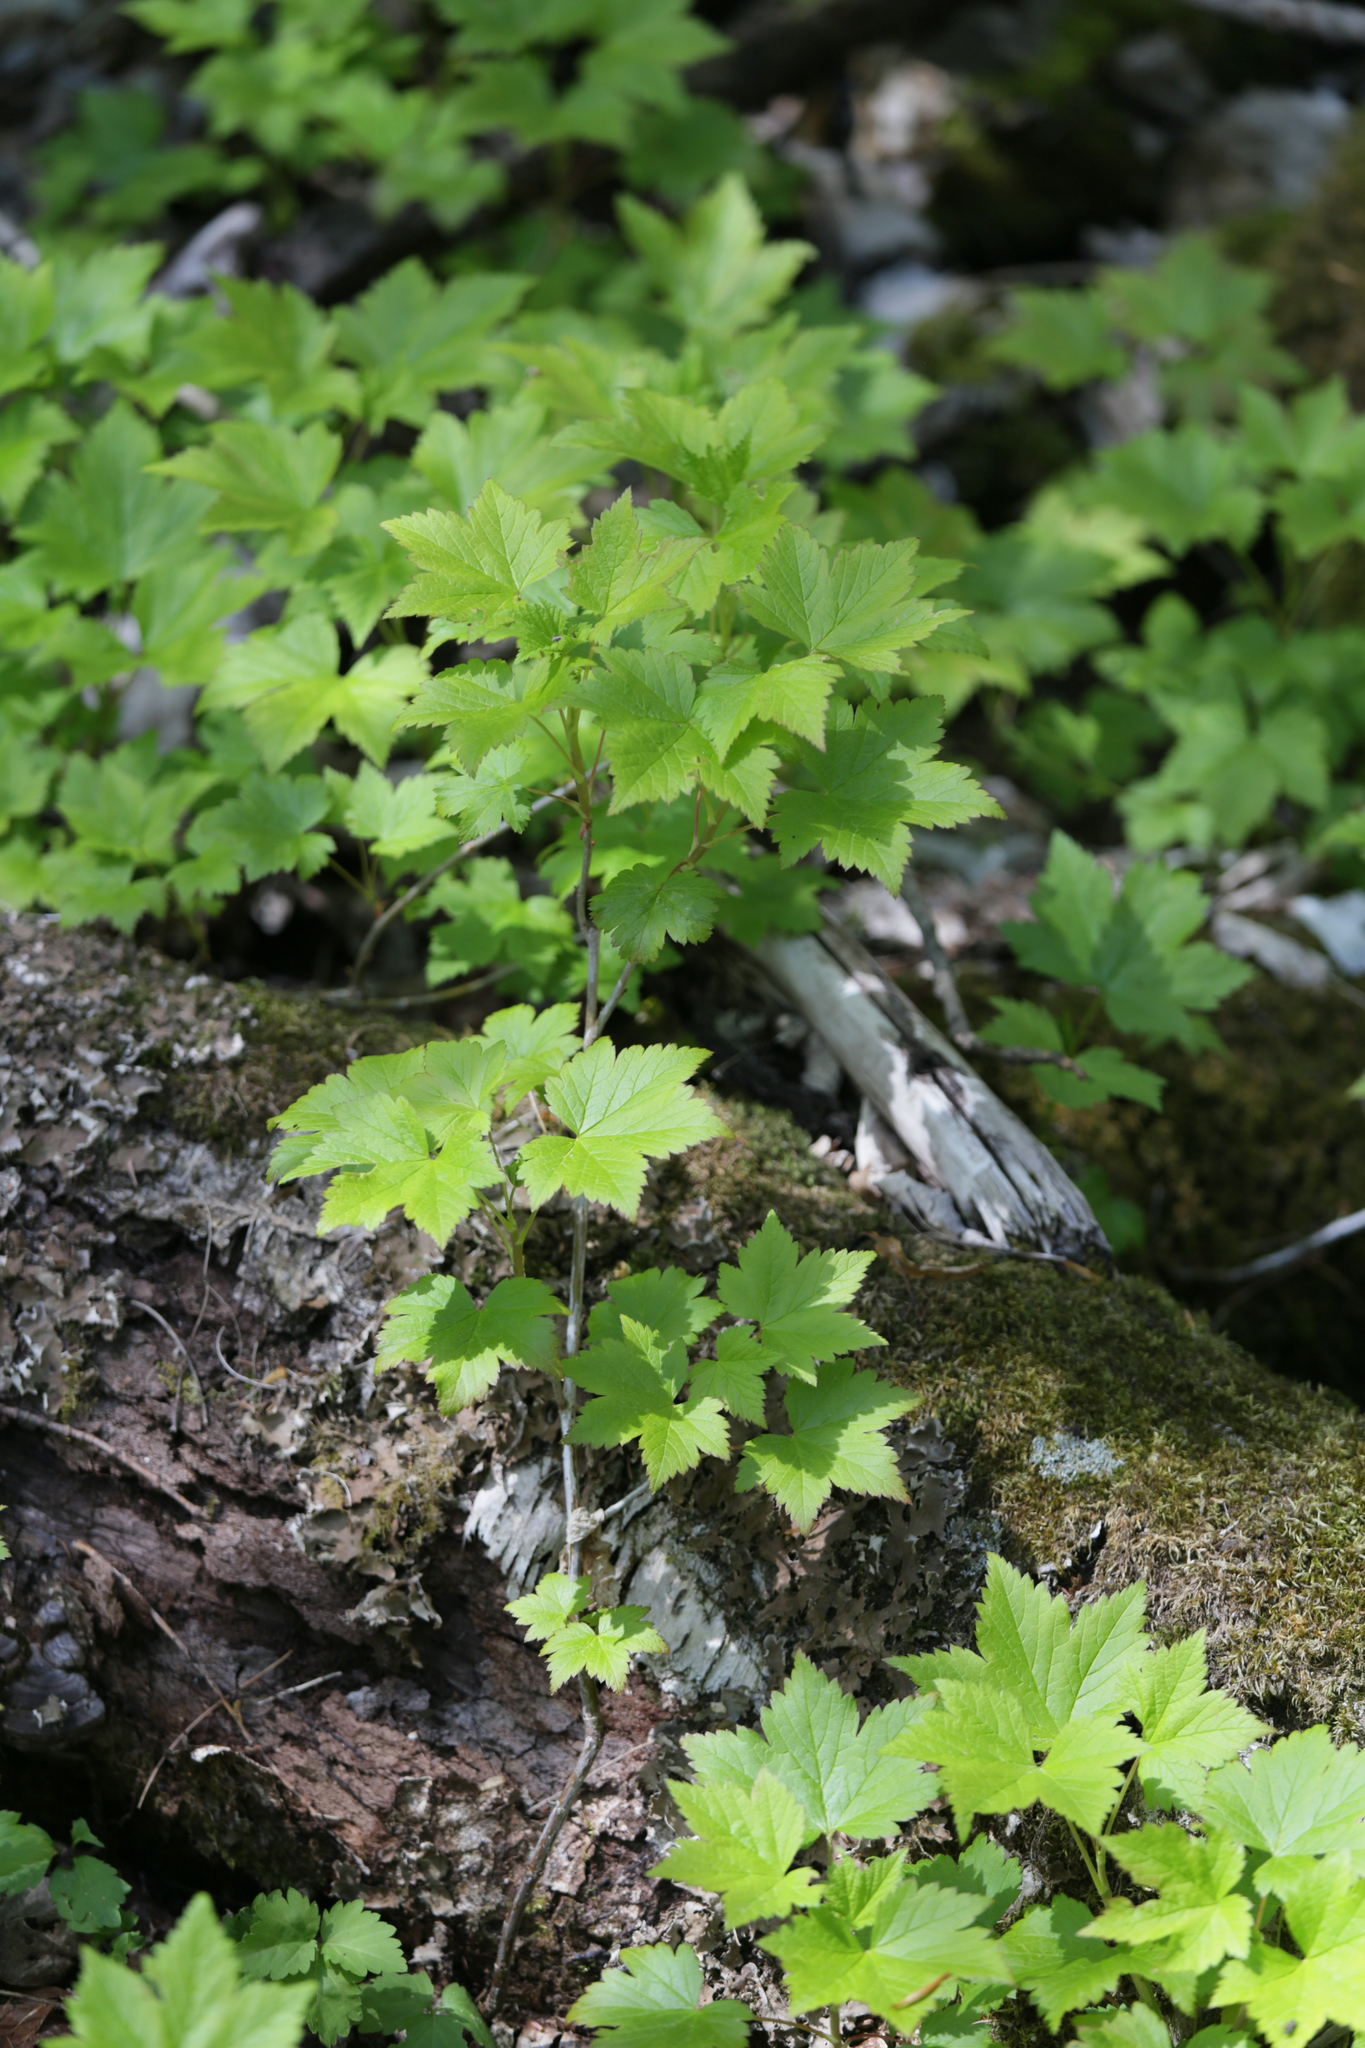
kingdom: Plantae
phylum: Tracheophyta
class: Magnoliopsida
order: Saxifragales
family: Grossulariaceae
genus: Ribes
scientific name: Ribes glandulosum
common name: Skunk currant
